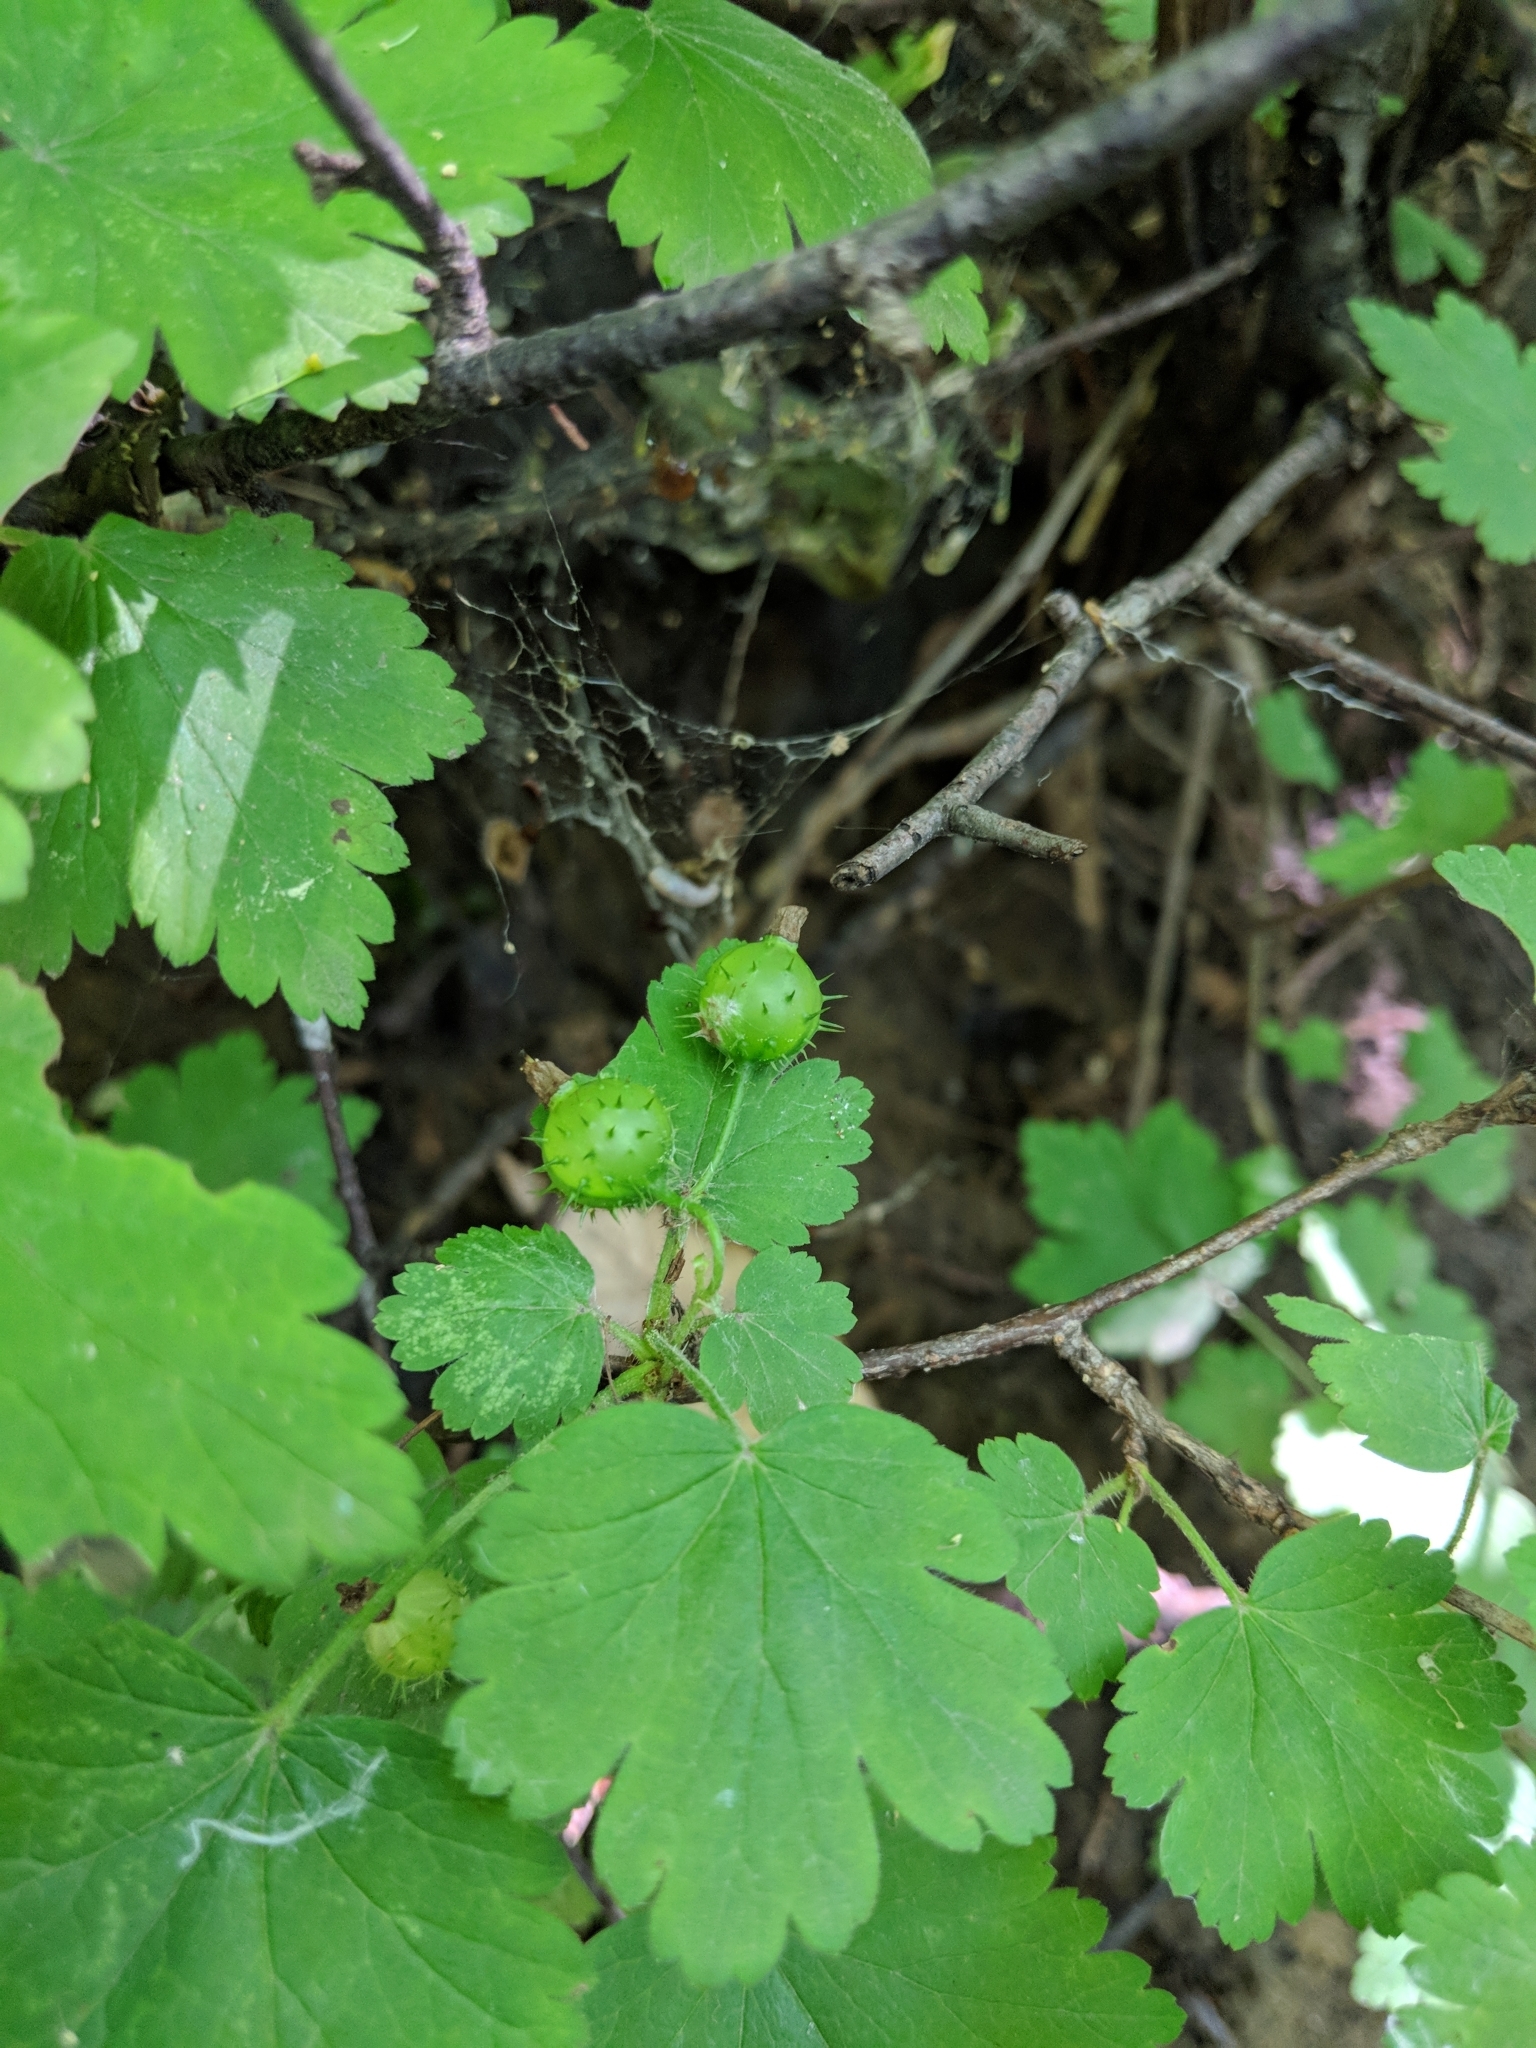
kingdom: Plantae
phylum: Tracheophyta
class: Magnoliopsida
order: Saxifragales
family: Grossulariaceae
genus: Ribes
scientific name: Ribes cynosbati
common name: American gooseberry
